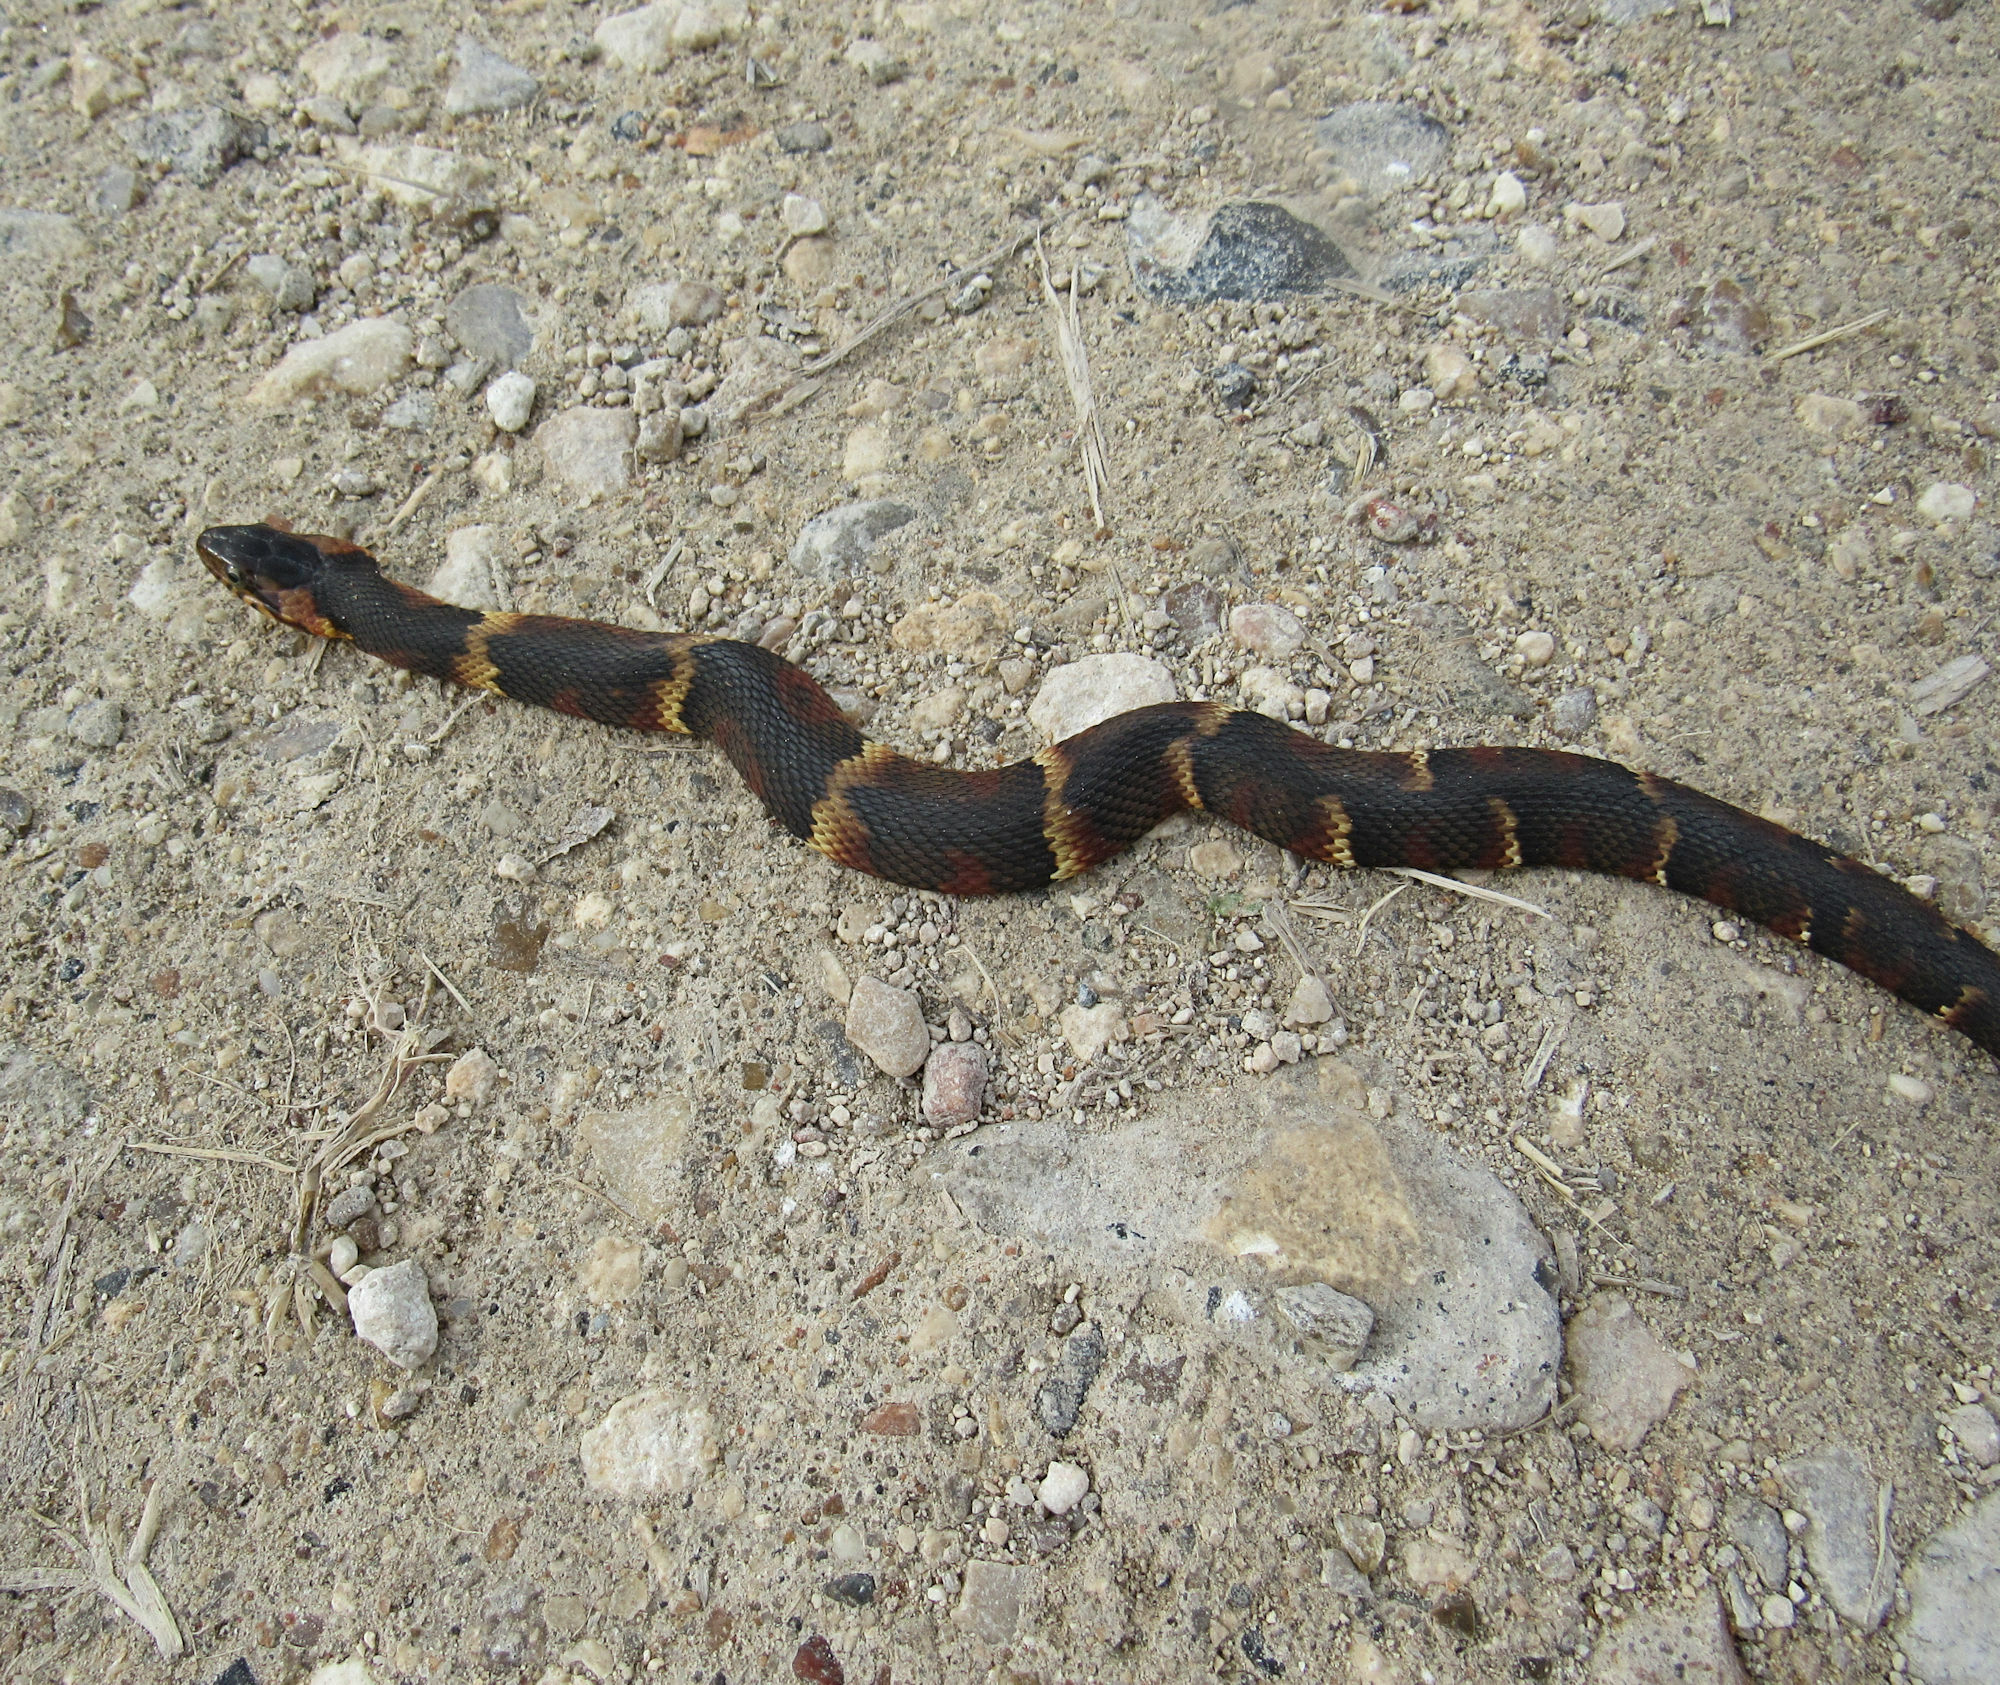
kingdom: Animalia
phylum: Chordata
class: Squamata
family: Colubridae
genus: Nerodia
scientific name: Nerodia fasciata
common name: Southern water snake
